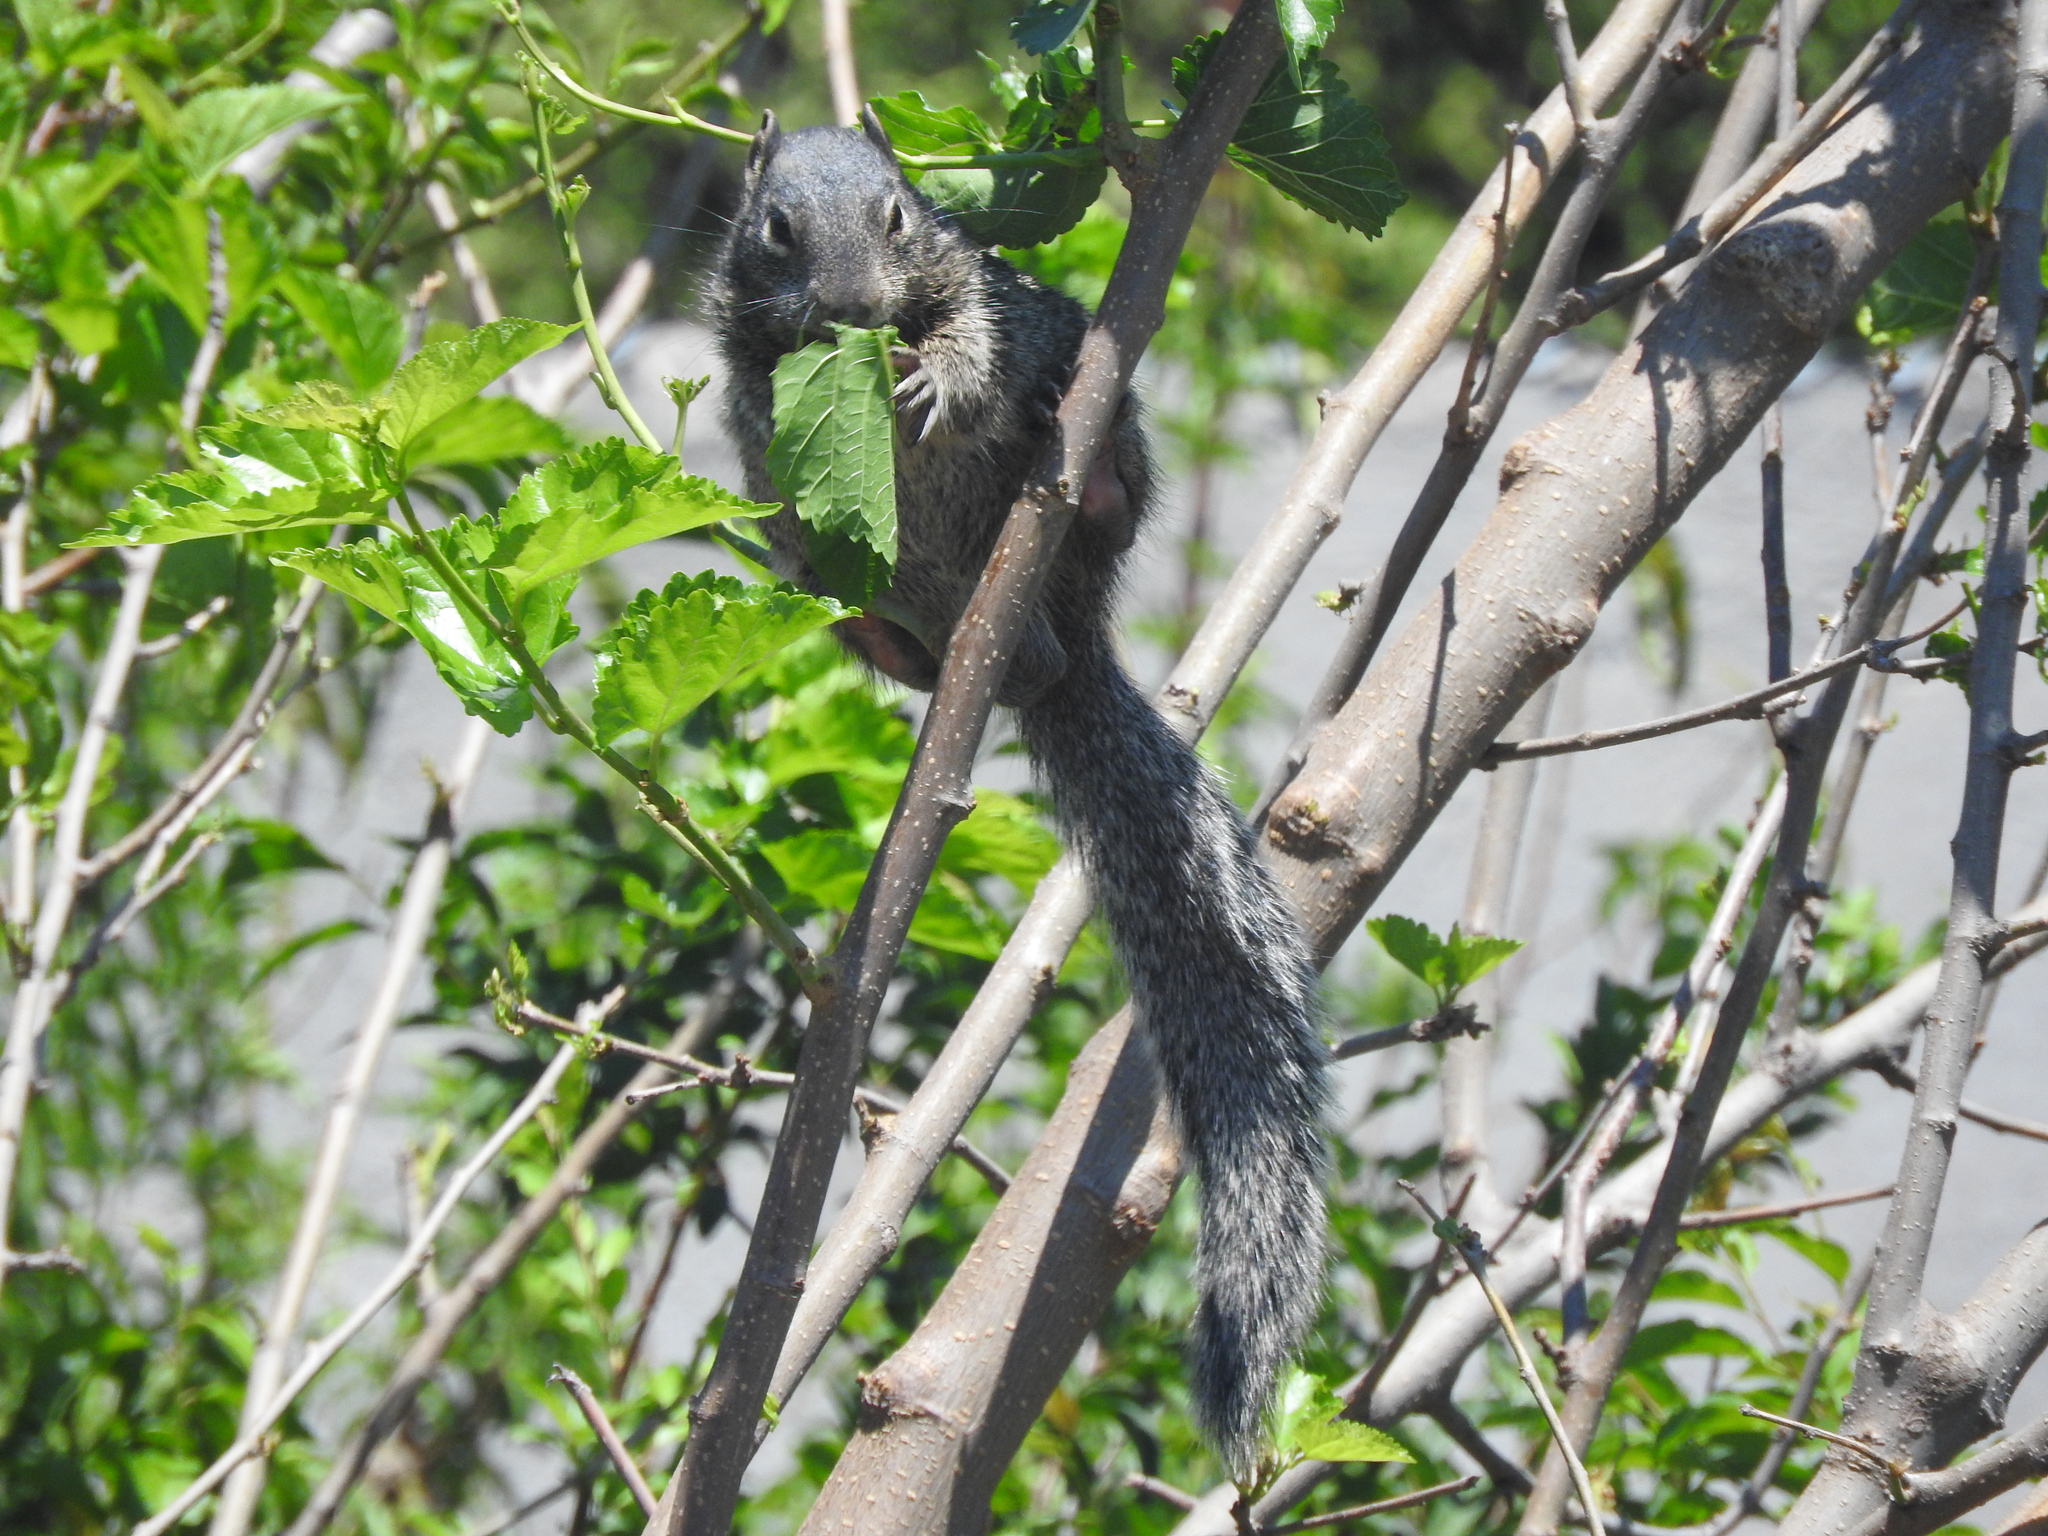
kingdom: Animalia
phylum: Chordata
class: Mammalia
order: Rodentia
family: Sciuridae
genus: Otospermophilus
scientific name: Otospermophilus variegatus
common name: Rock squirrel
